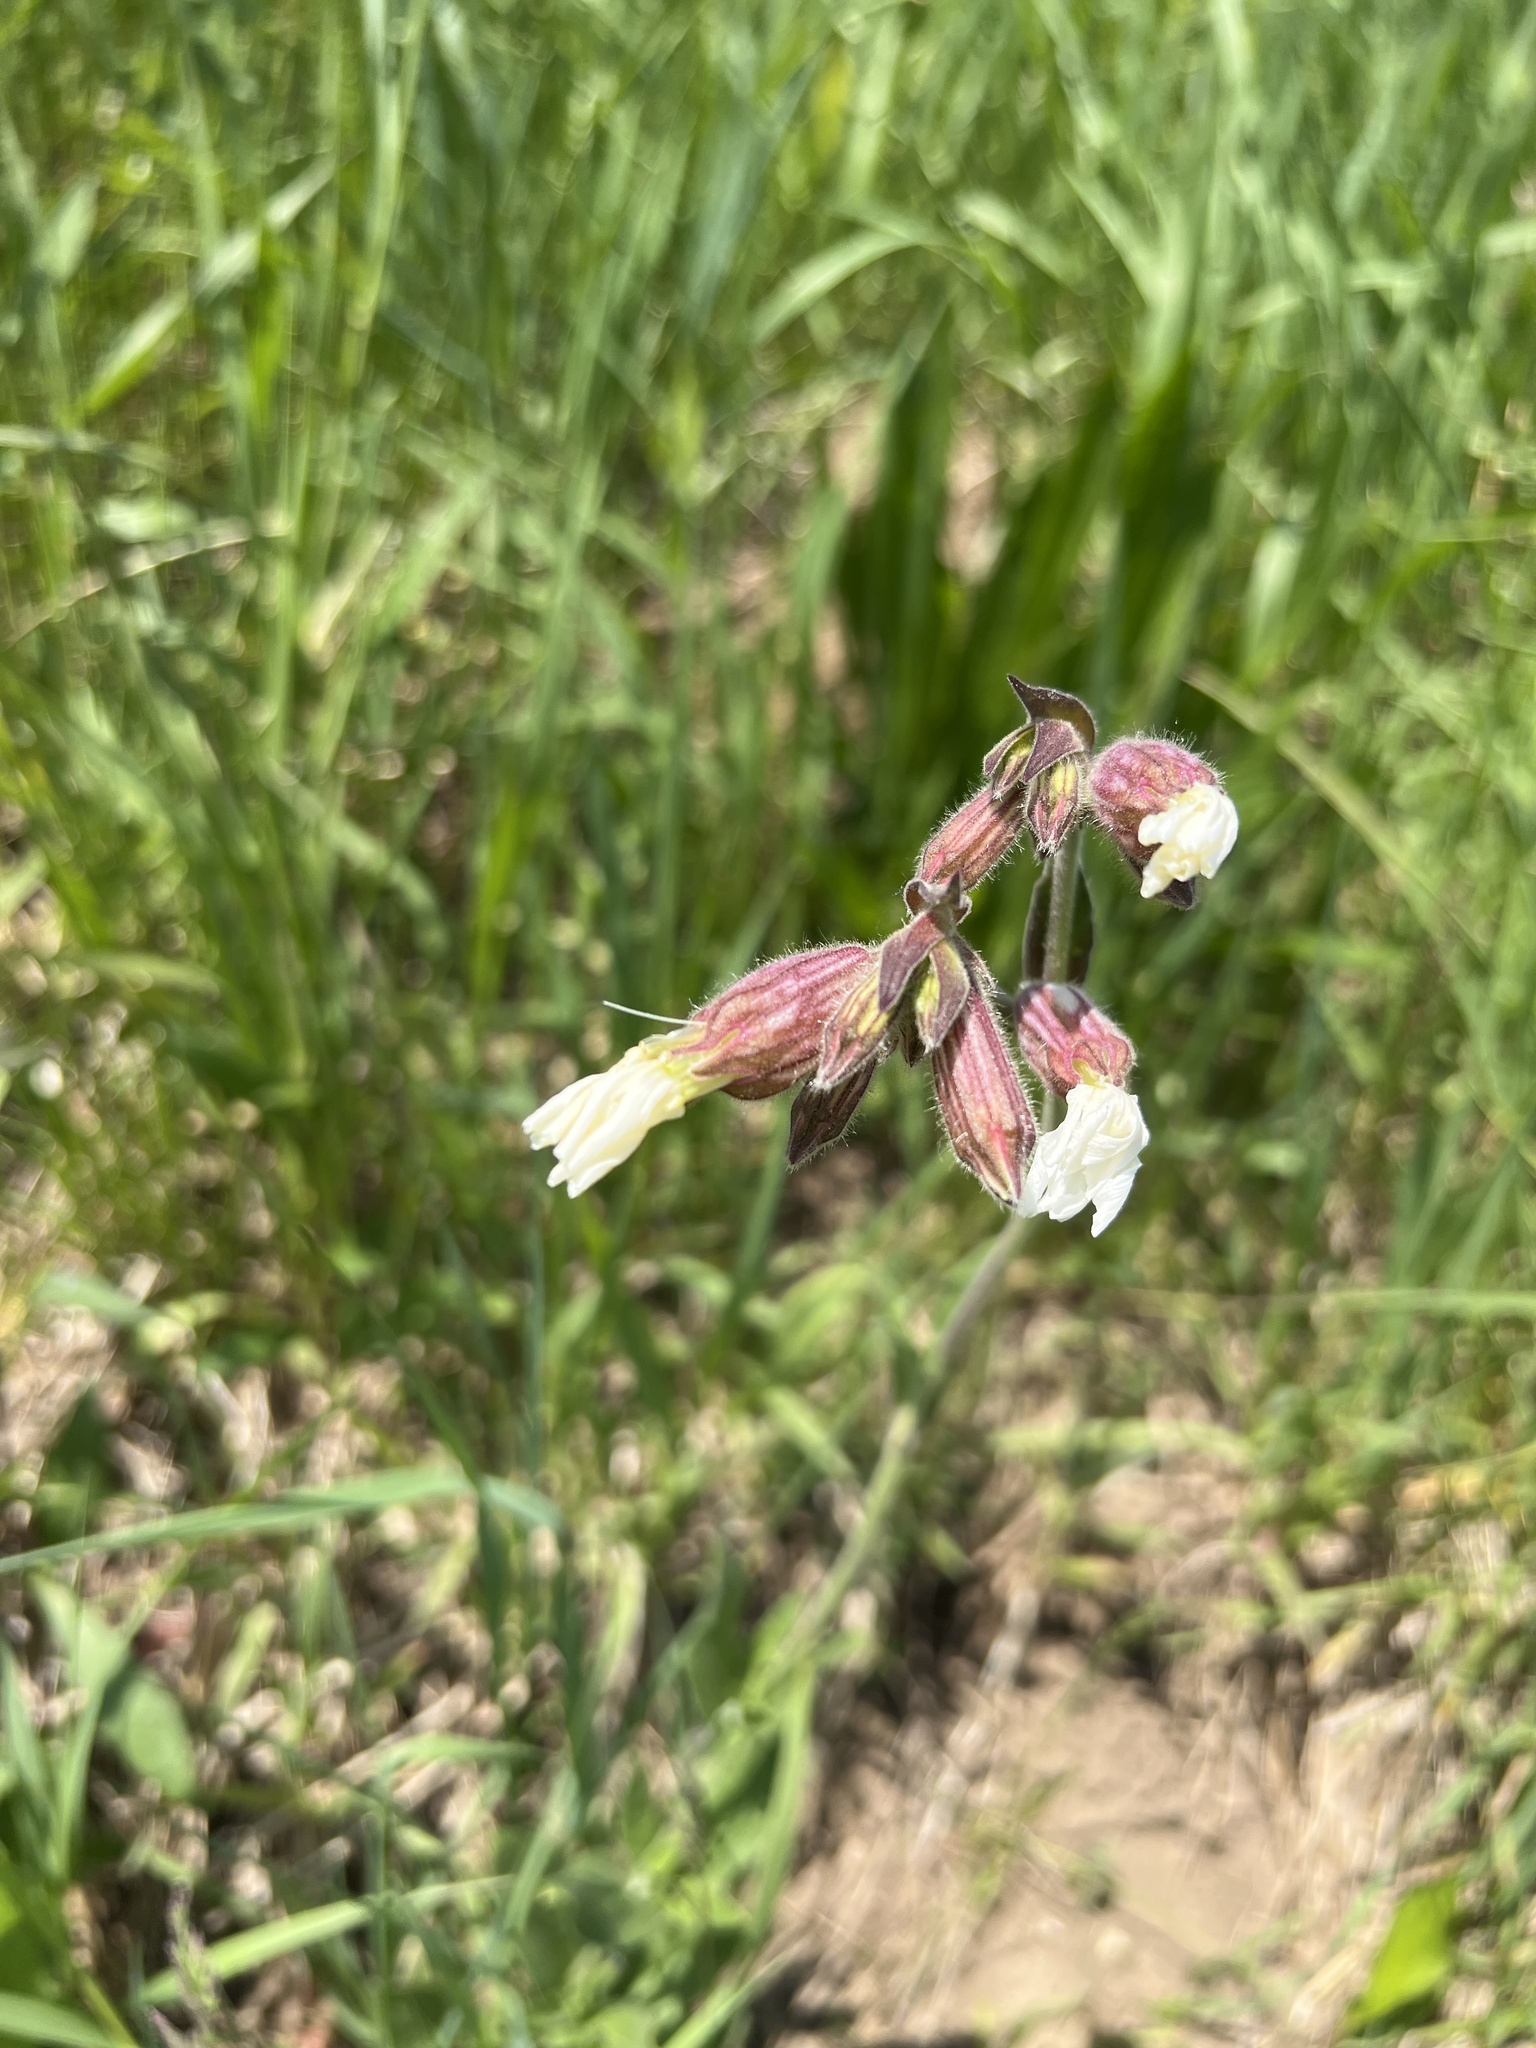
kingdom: Plantae
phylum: Tracheophyta
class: Magnoliopsida
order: Caryophyllales
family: Caryophyllaceae
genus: Silene
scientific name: Silene latifolia
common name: White campion
